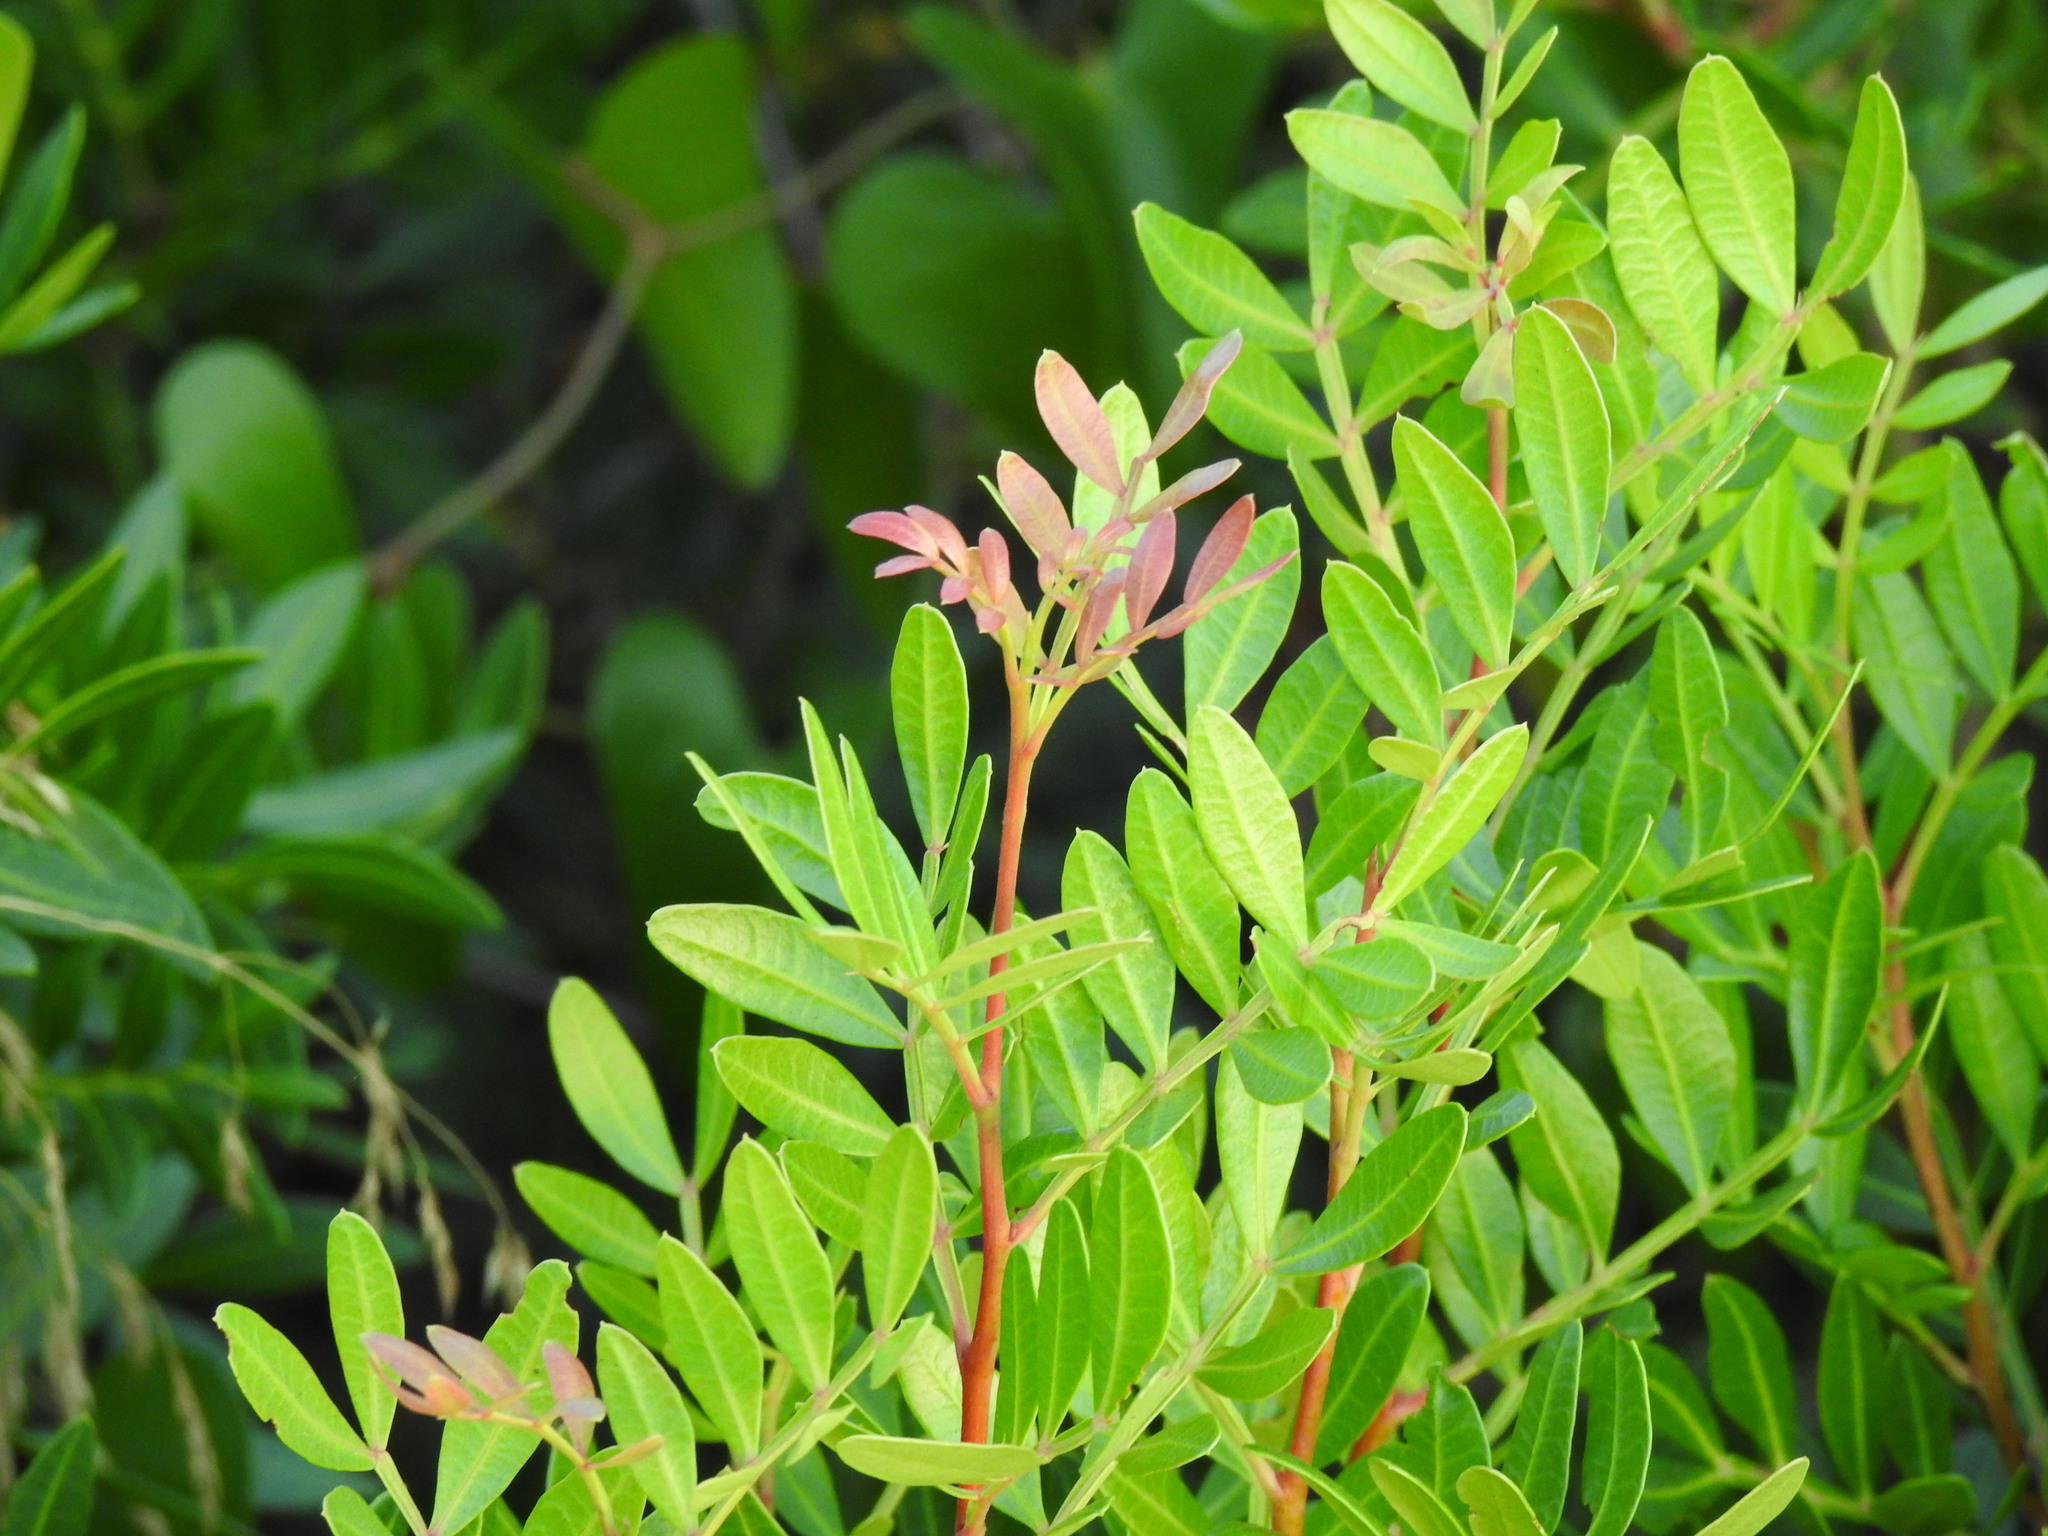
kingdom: Plantae
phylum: Tracheophyta
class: Magnoliopsida
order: Sapindales
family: Anacardiaceae
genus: Pistacia
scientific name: Pistacia lentiscus
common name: Lentisk
